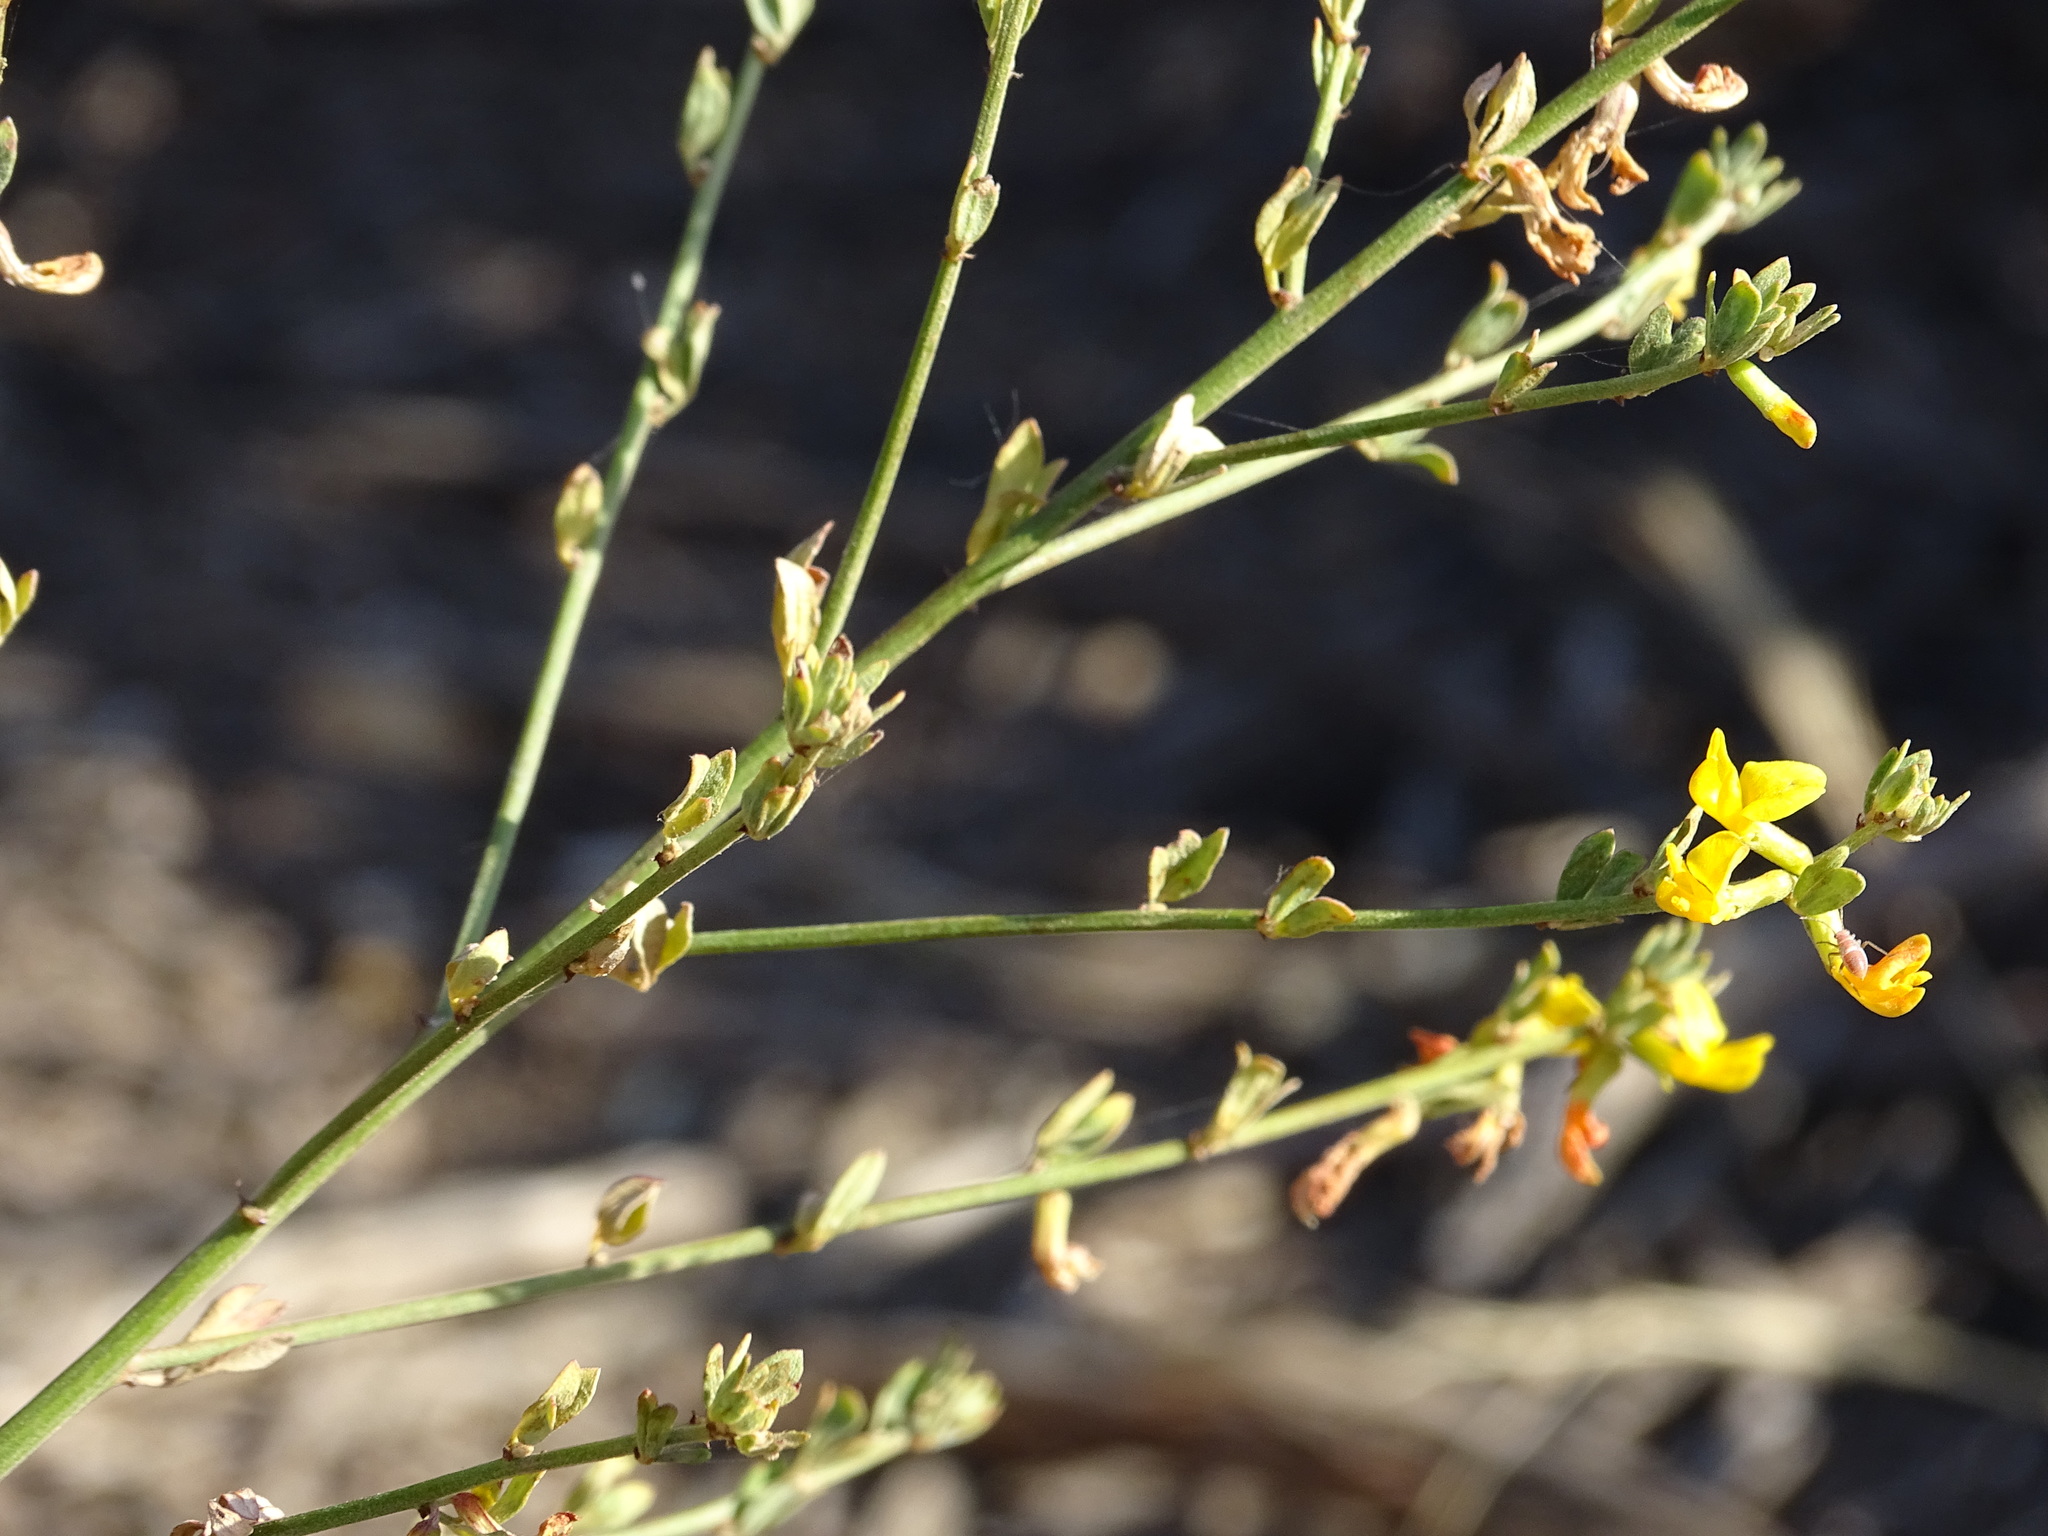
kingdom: Plantae
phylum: Tracheophyta
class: Magnoliopsida
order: Fabales
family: Fabaceae
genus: Acmispon
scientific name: Acmispon glaber
